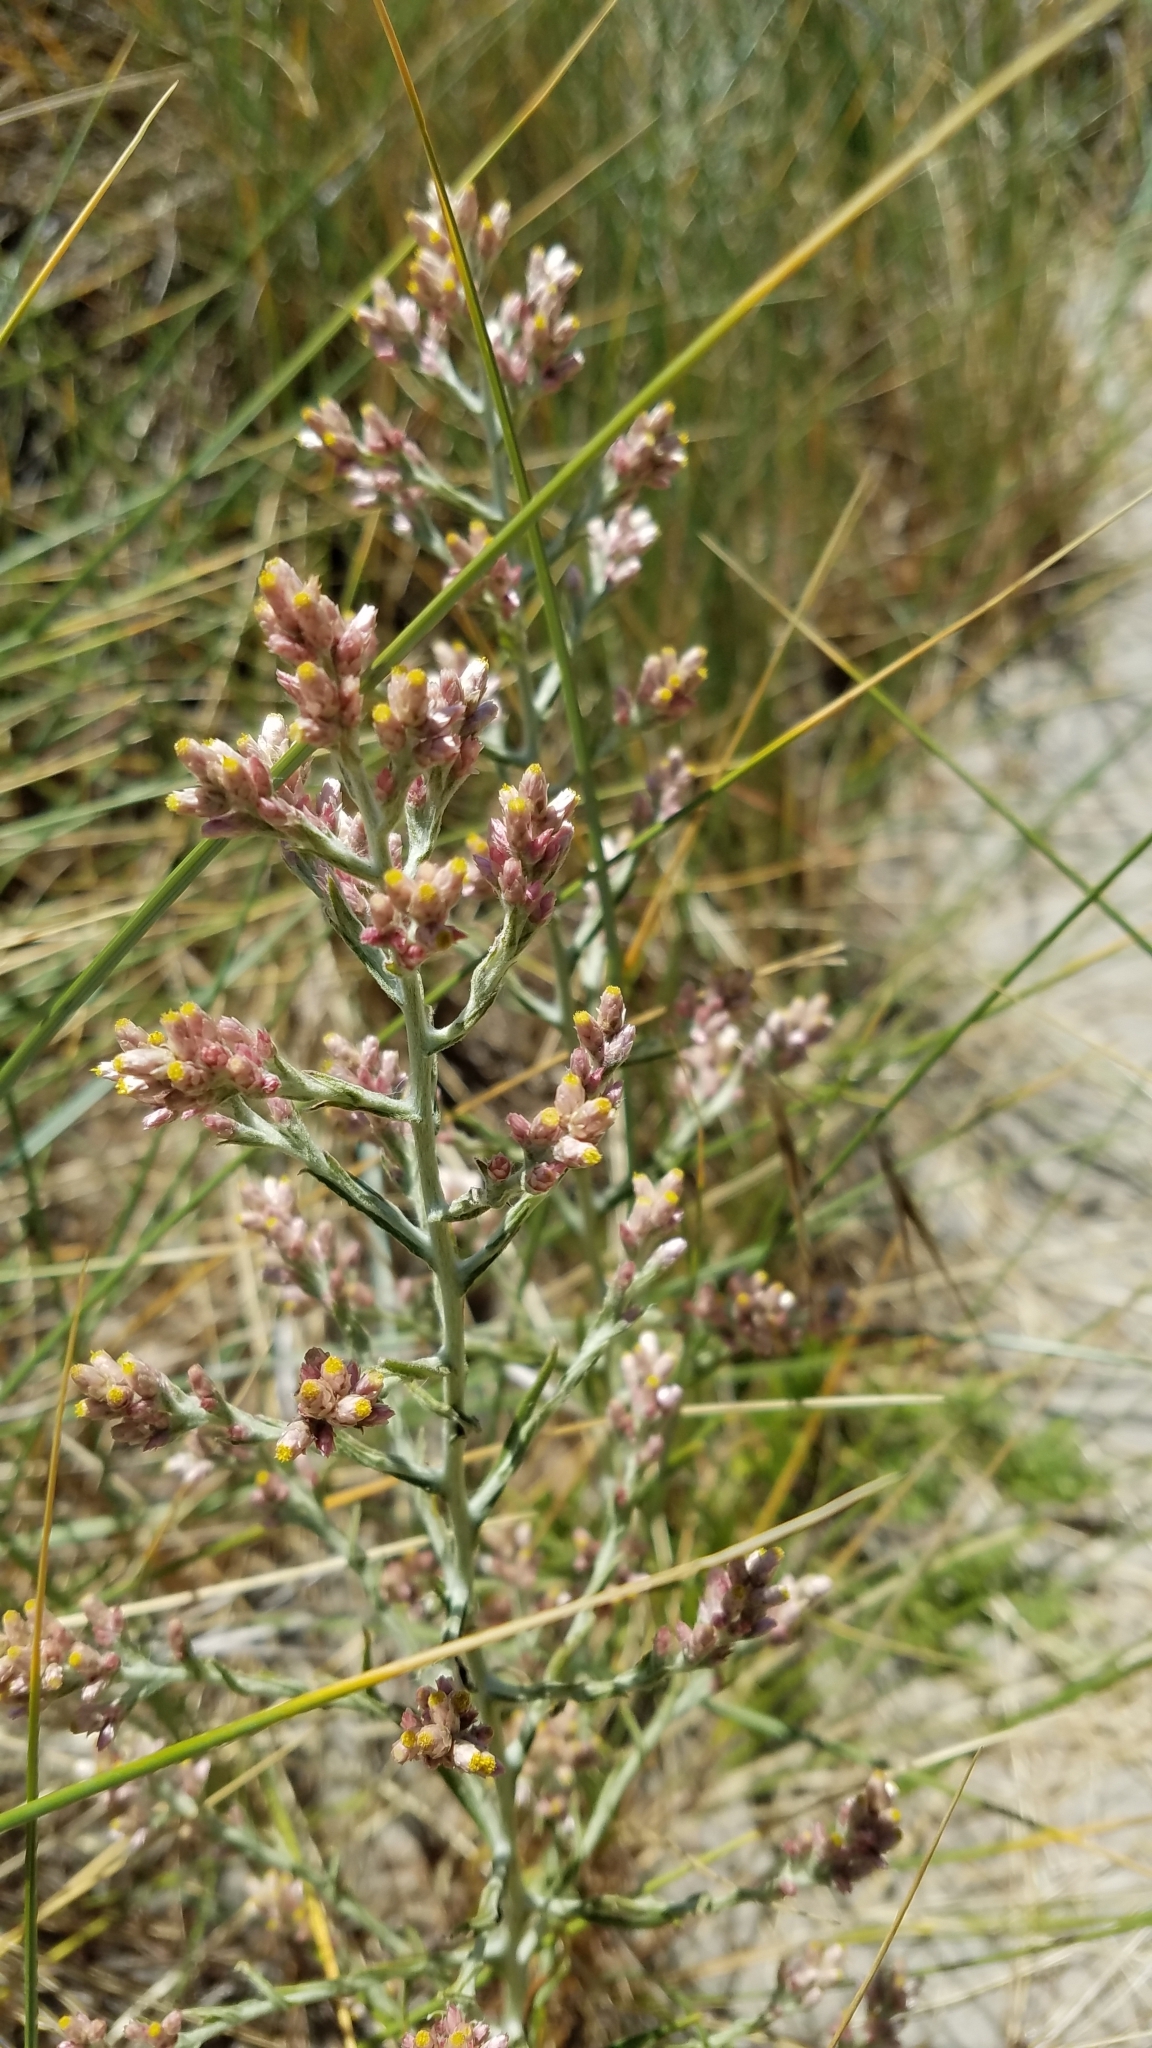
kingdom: Plantae
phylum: Tracheophyta
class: Magnoliopsida
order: Asterales
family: Asteraceae
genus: Pseudognaphalium
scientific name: Pseudognaphalium ramosissimum
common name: Pink rabbit-tobacco
